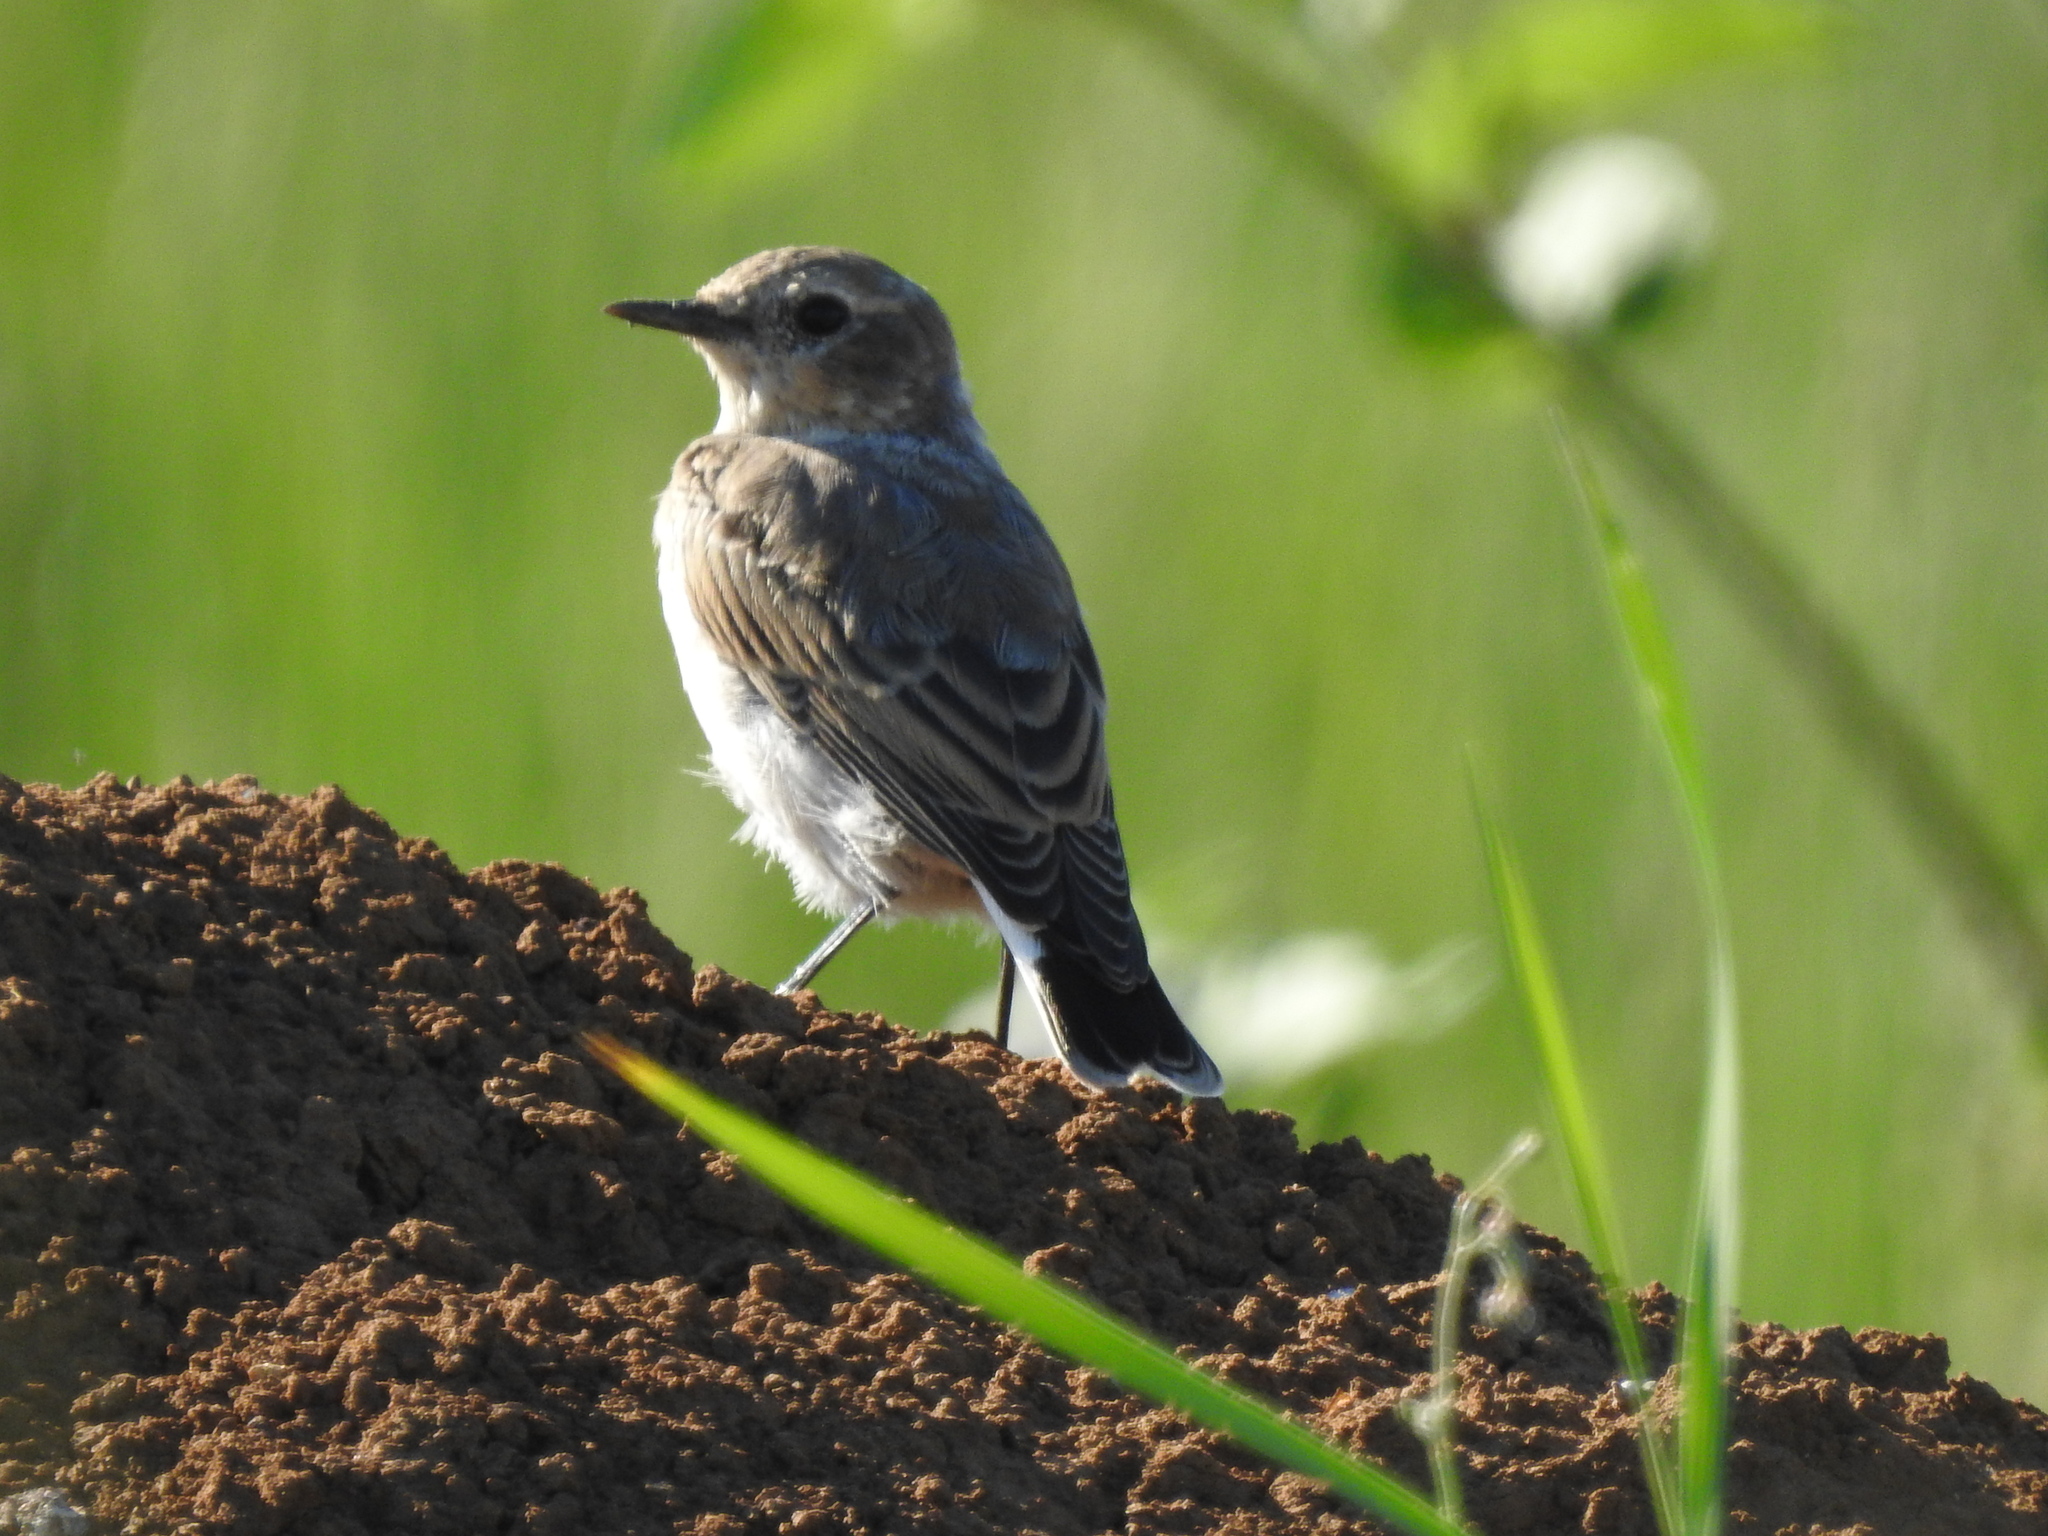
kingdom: Animalia
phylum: Chordata
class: Aves
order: Passeriformes
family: Muscicapidae
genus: Oenanthe
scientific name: Oenanthe oenanthe
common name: Northern wheatear
